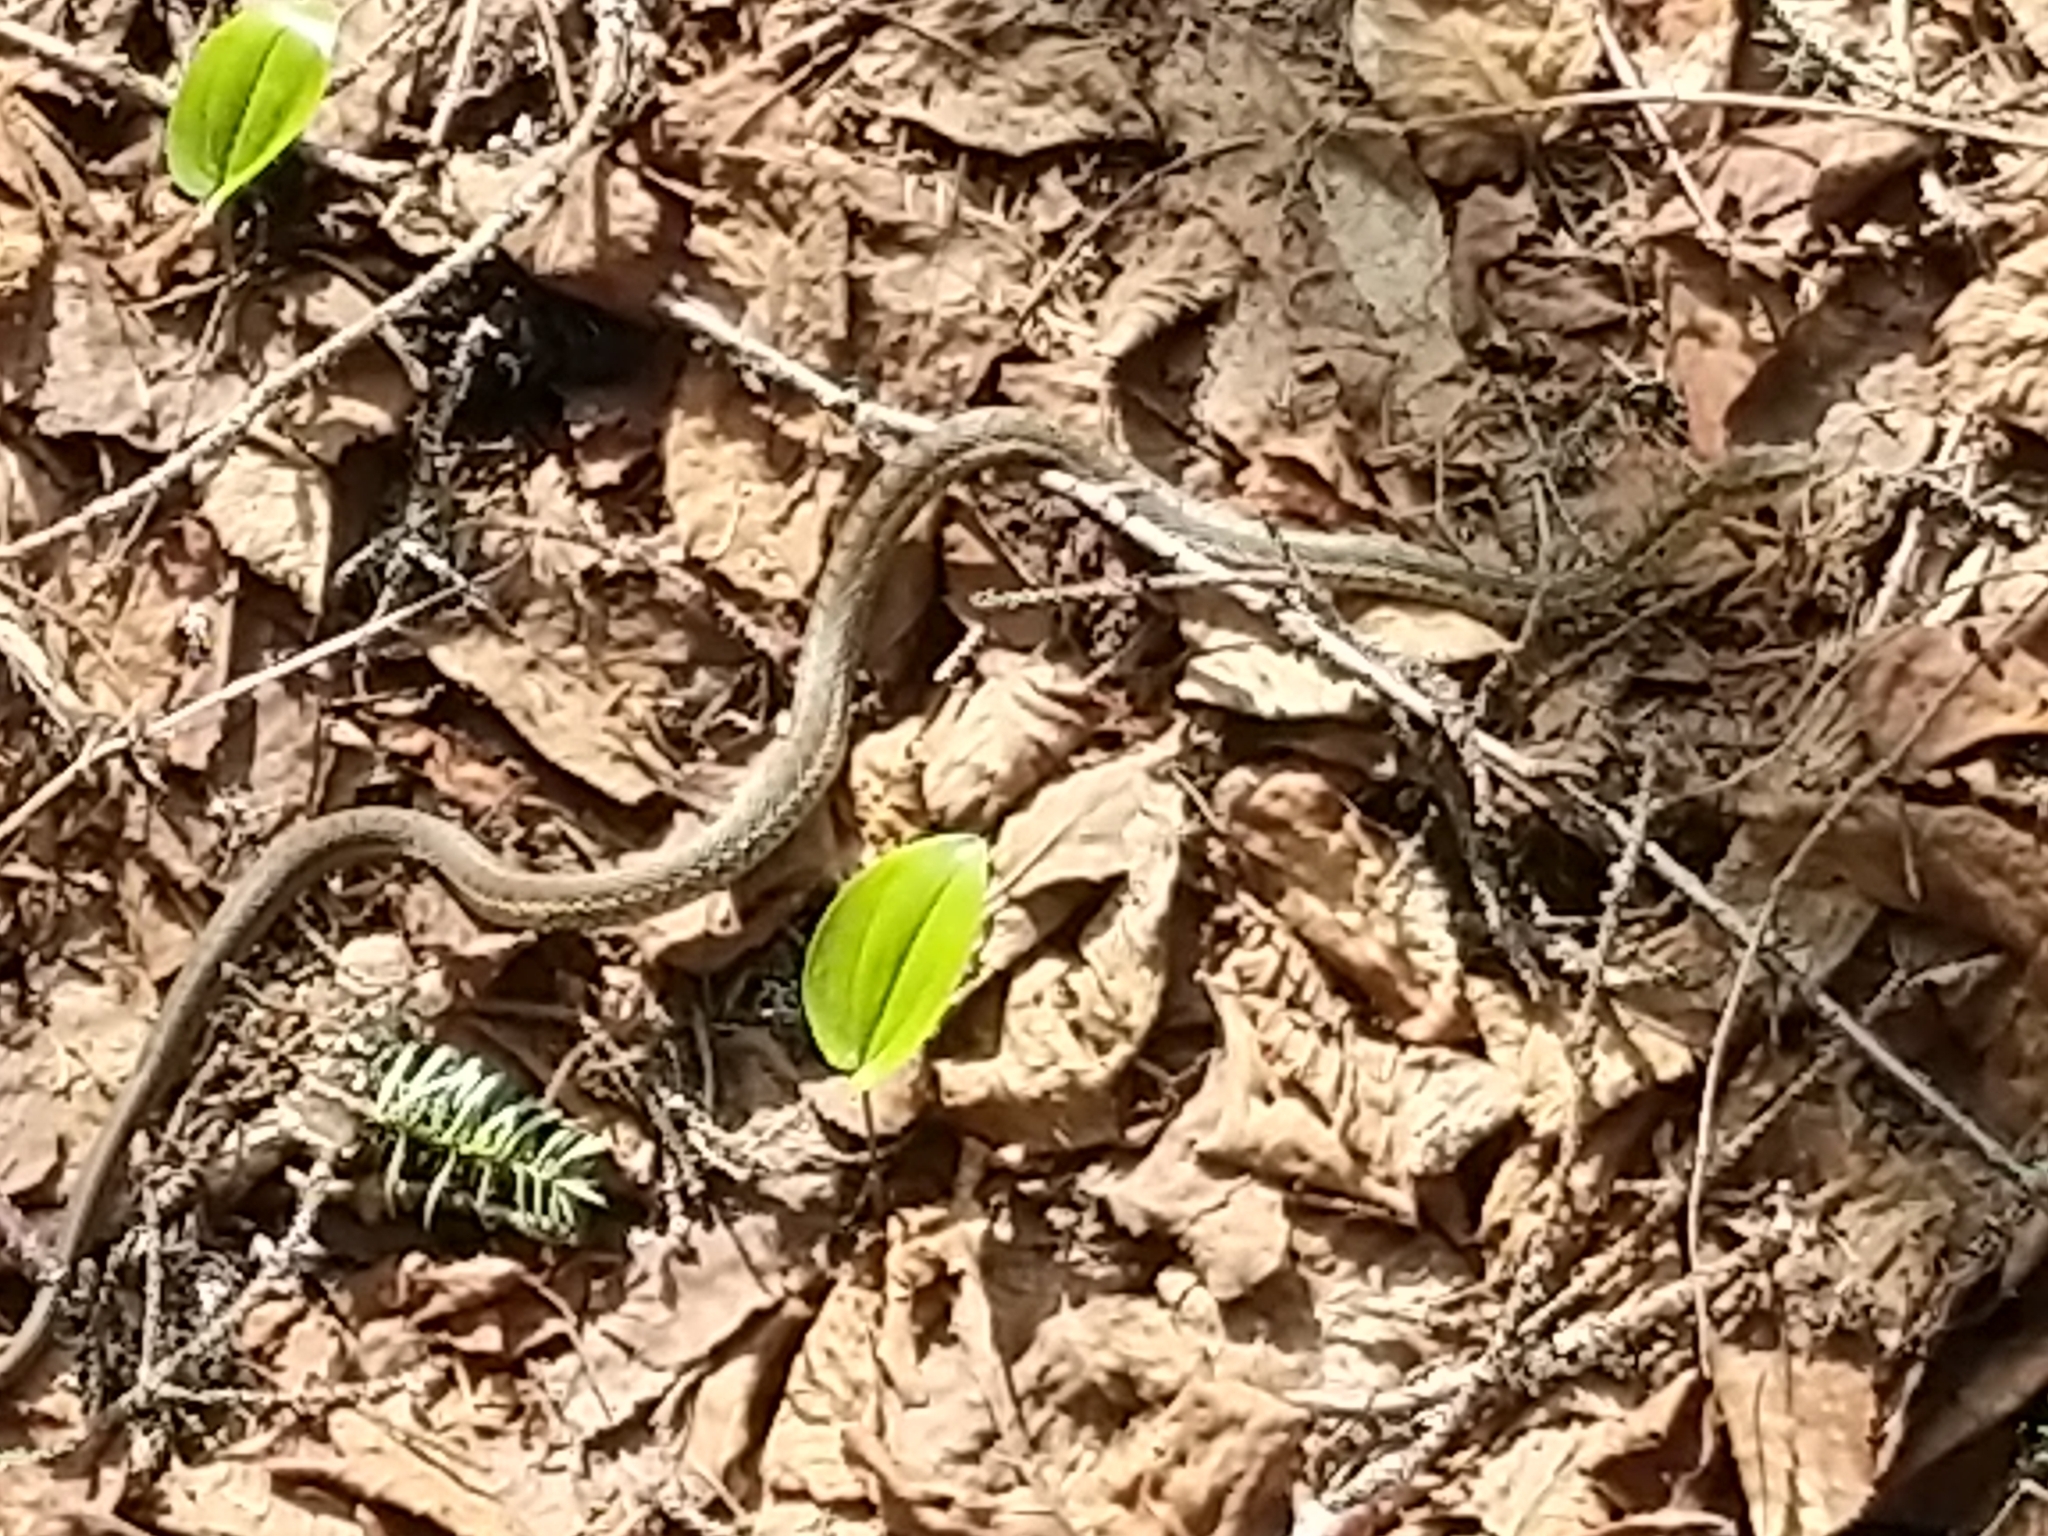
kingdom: Animalia
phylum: Chordata
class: Squamata
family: Colubridae
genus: Thamnophis
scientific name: Thamnophis sirtalis
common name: Common garter snake
